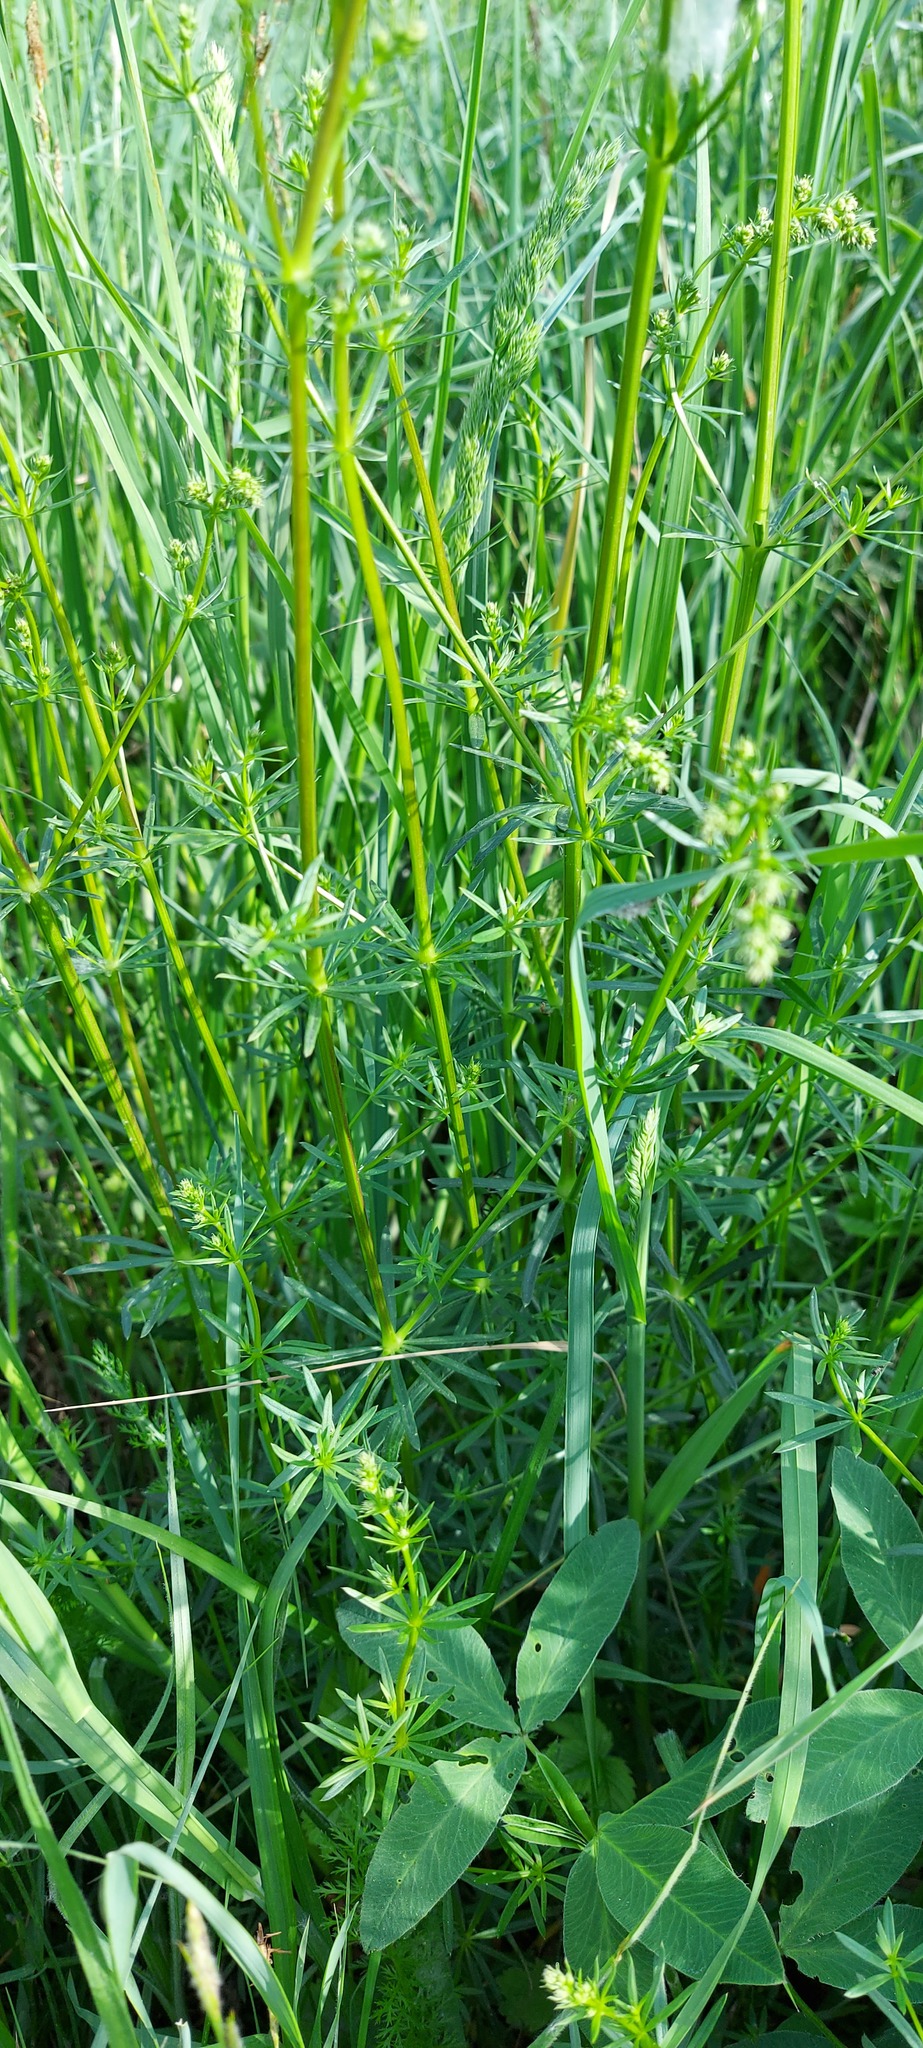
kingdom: Plantae
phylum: Tracheophyta
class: Magnoliopsida
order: Gentianales
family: Rubiaceae
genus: Galium
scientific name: Galium mollugo
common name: Hedge bedstraw
